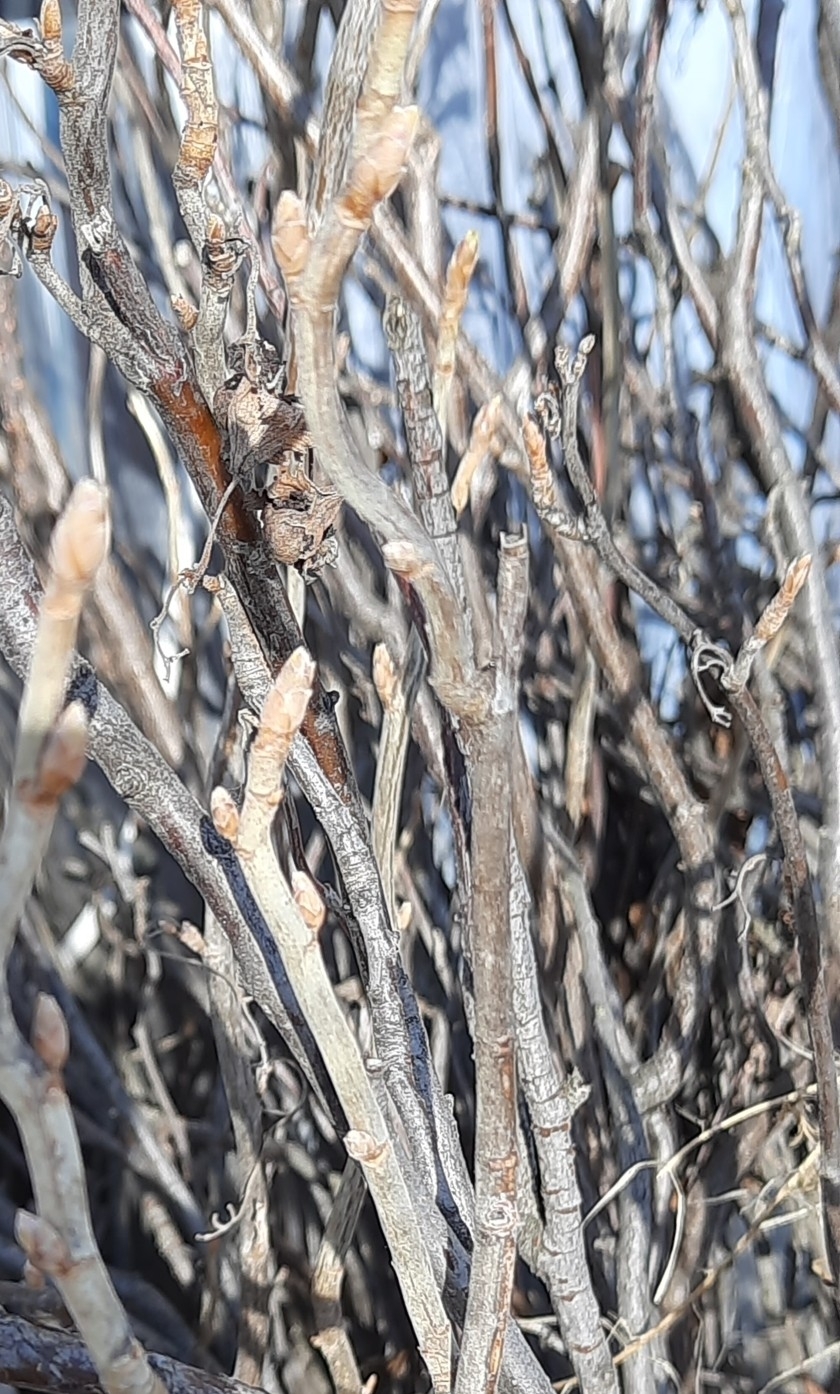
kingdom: Plantae
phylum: Tracheophyta
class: Magnoliopsida
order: Saxifragales
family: Grossulariaceae
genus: Ribes
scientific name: Ribes nigrum
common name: Black currant
